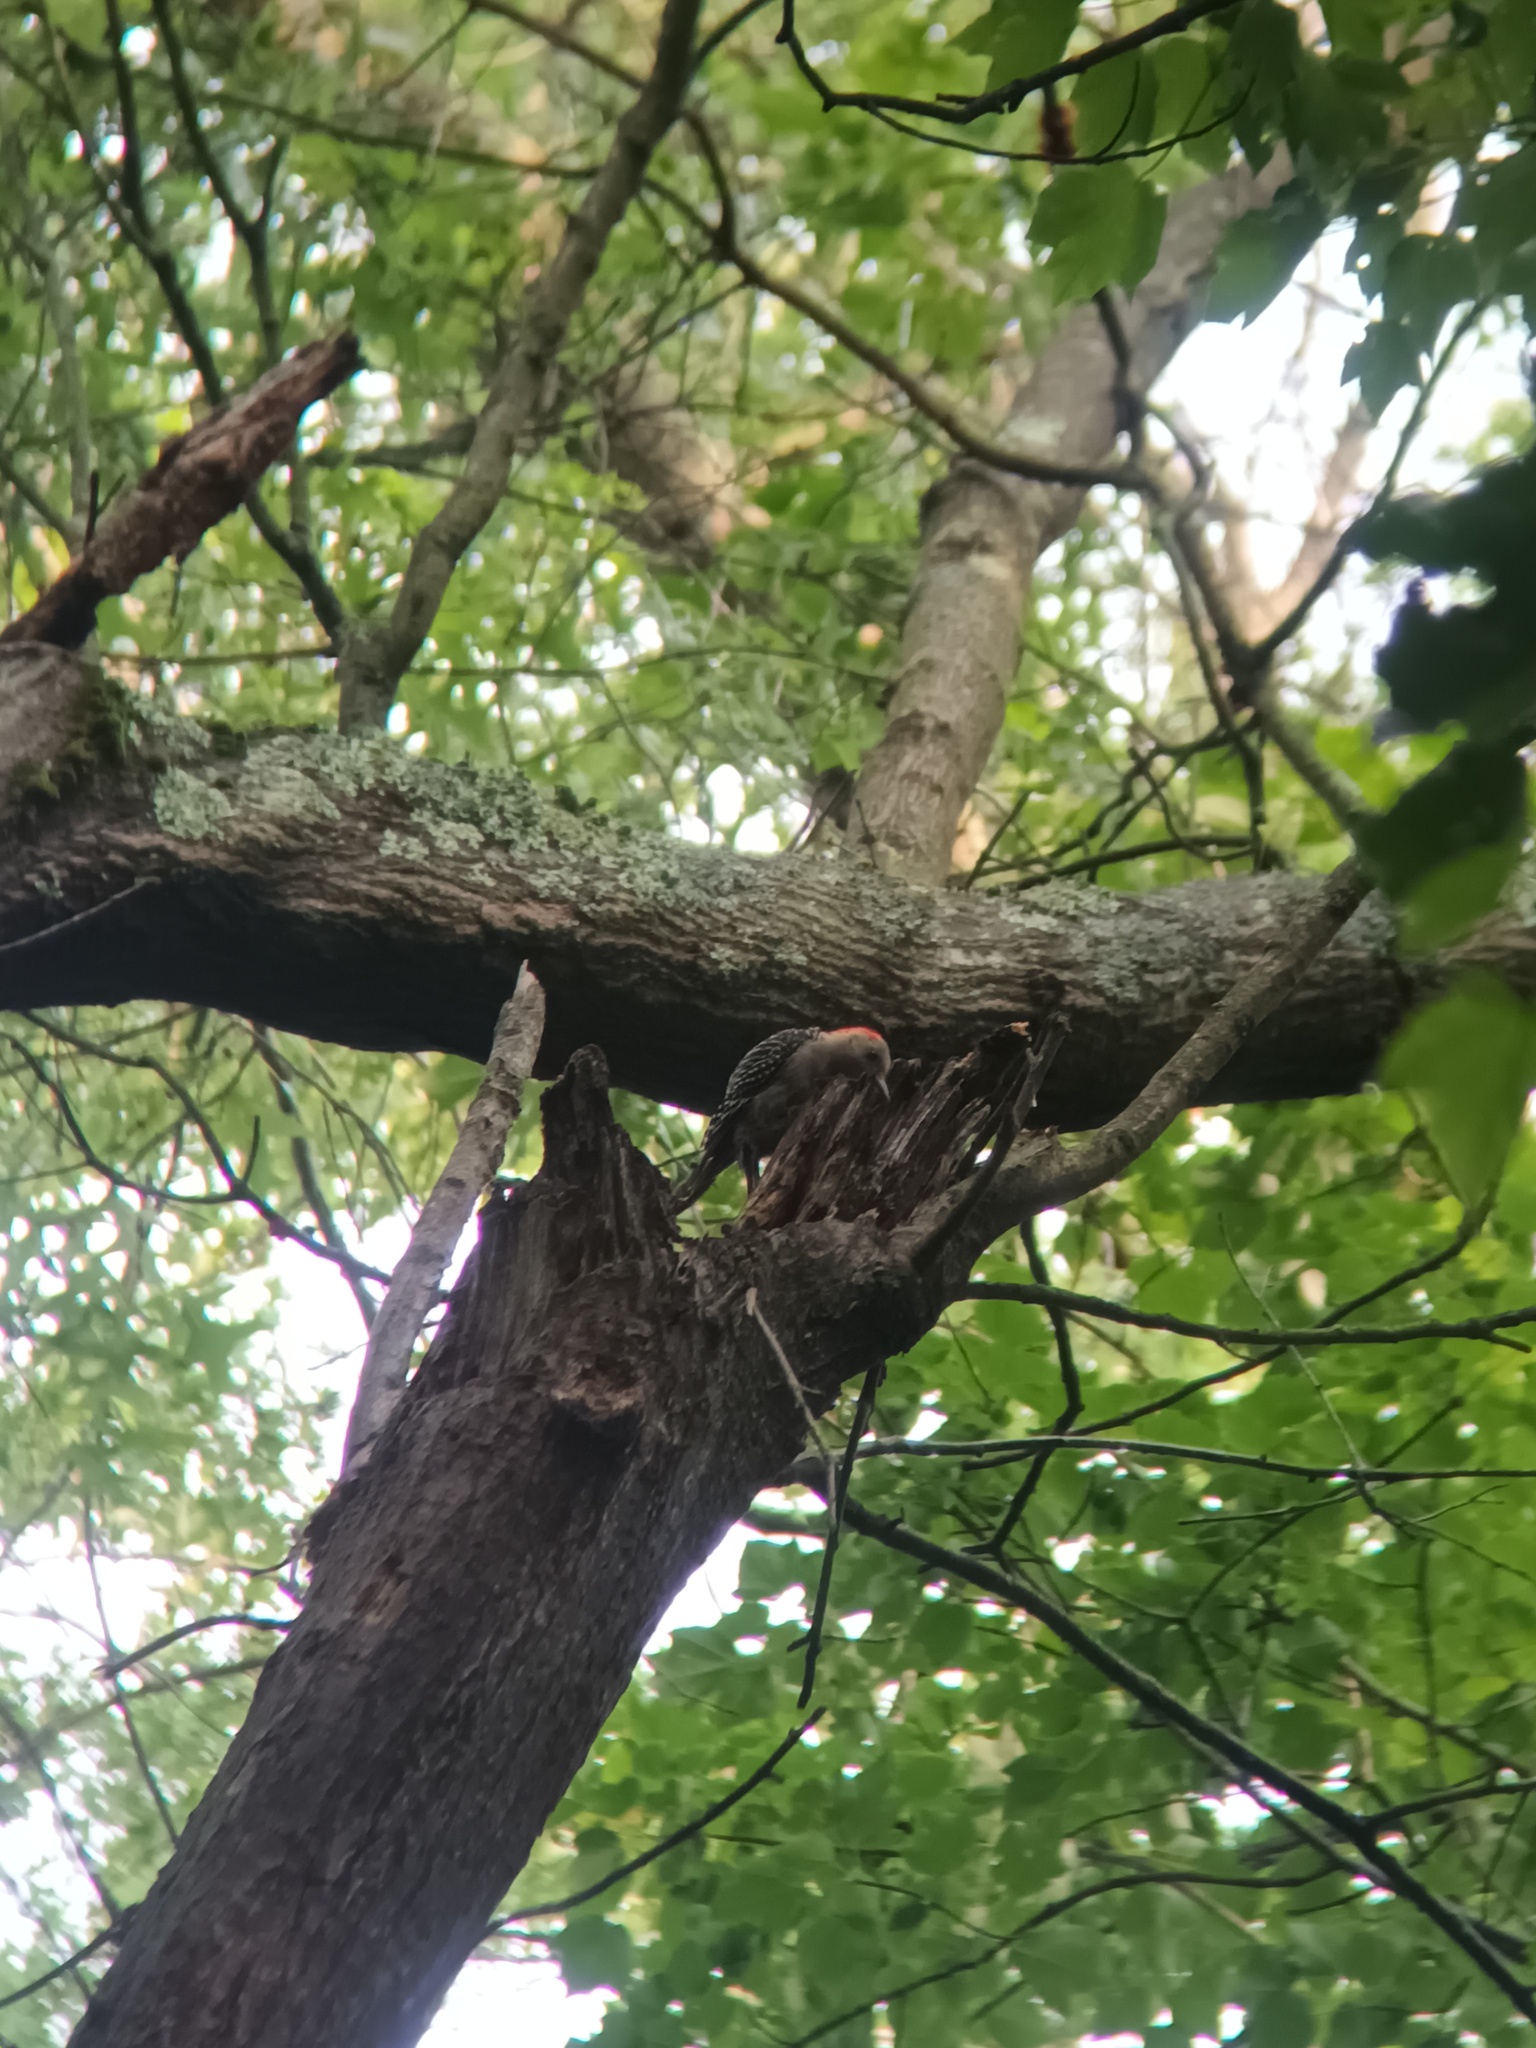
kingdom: Animalia
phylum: Chordata
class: Aves
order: Piciformes
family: Picidae
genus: Melanerpes
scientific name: Melanerpes carolinus
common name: Red-bellied woodpecker
